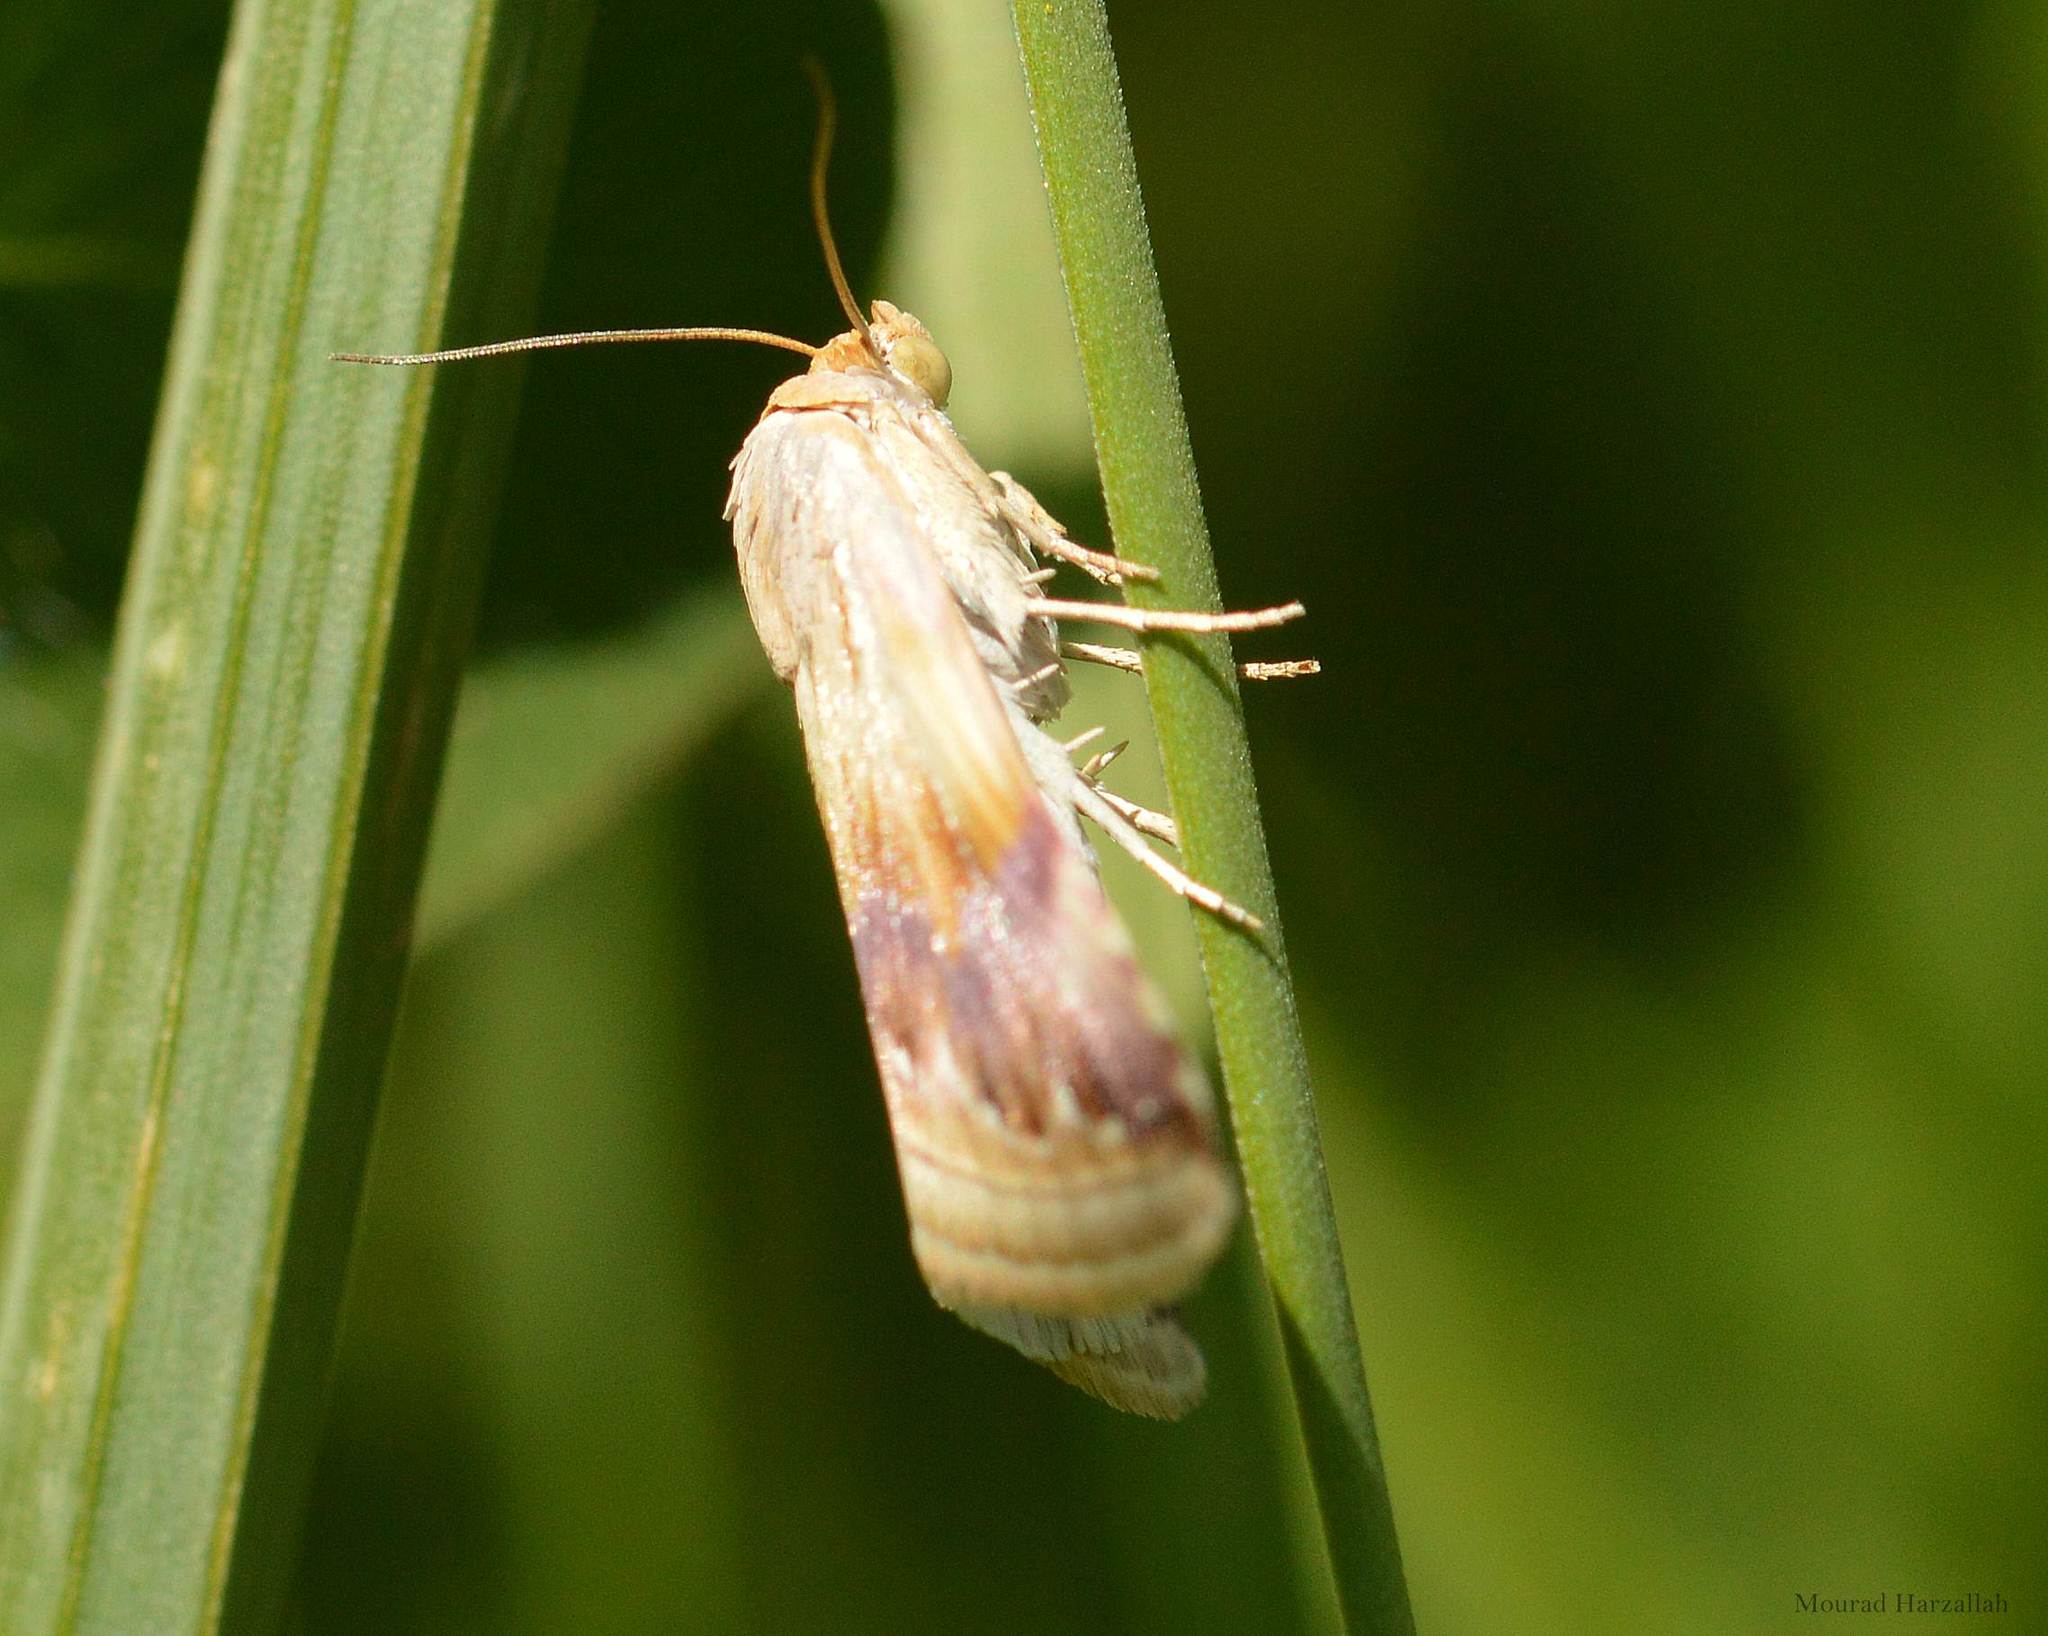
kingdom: Animalia
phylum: Arthropoda
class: Insecta
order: Lepidoptera
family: Noctuidae
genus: Eublemma
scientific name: Eublemma ostrina
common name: Purple marbled
